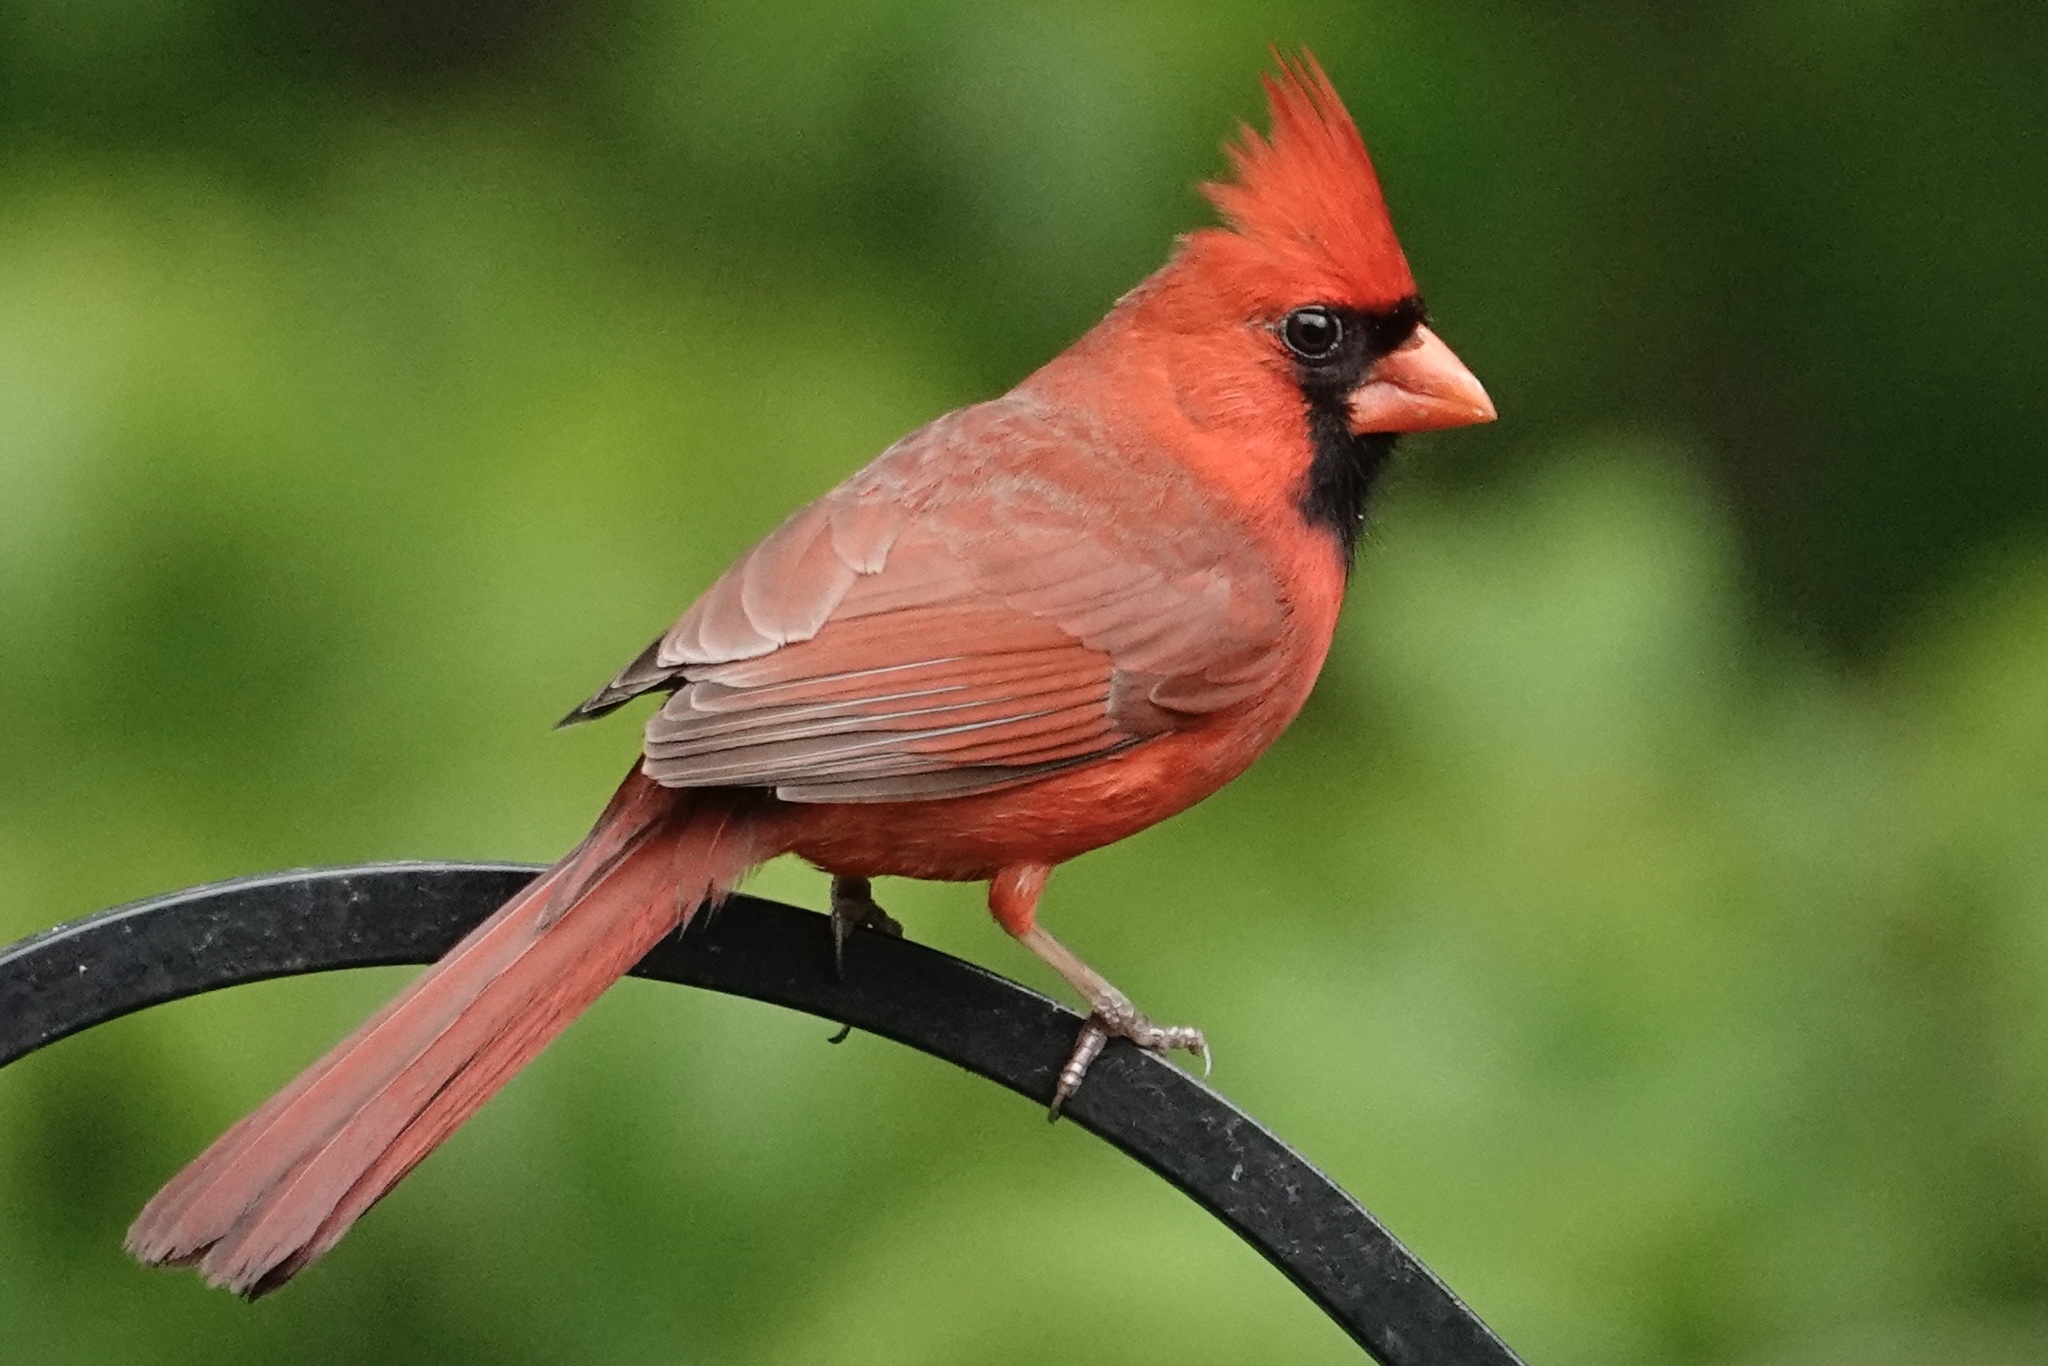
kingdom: Animalia
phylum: Chordata
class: Aves
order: Passeriformes
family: Cardinalidae
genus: Cardinalis
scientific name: Cardinalis cardinalis
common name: Northern cardinal
